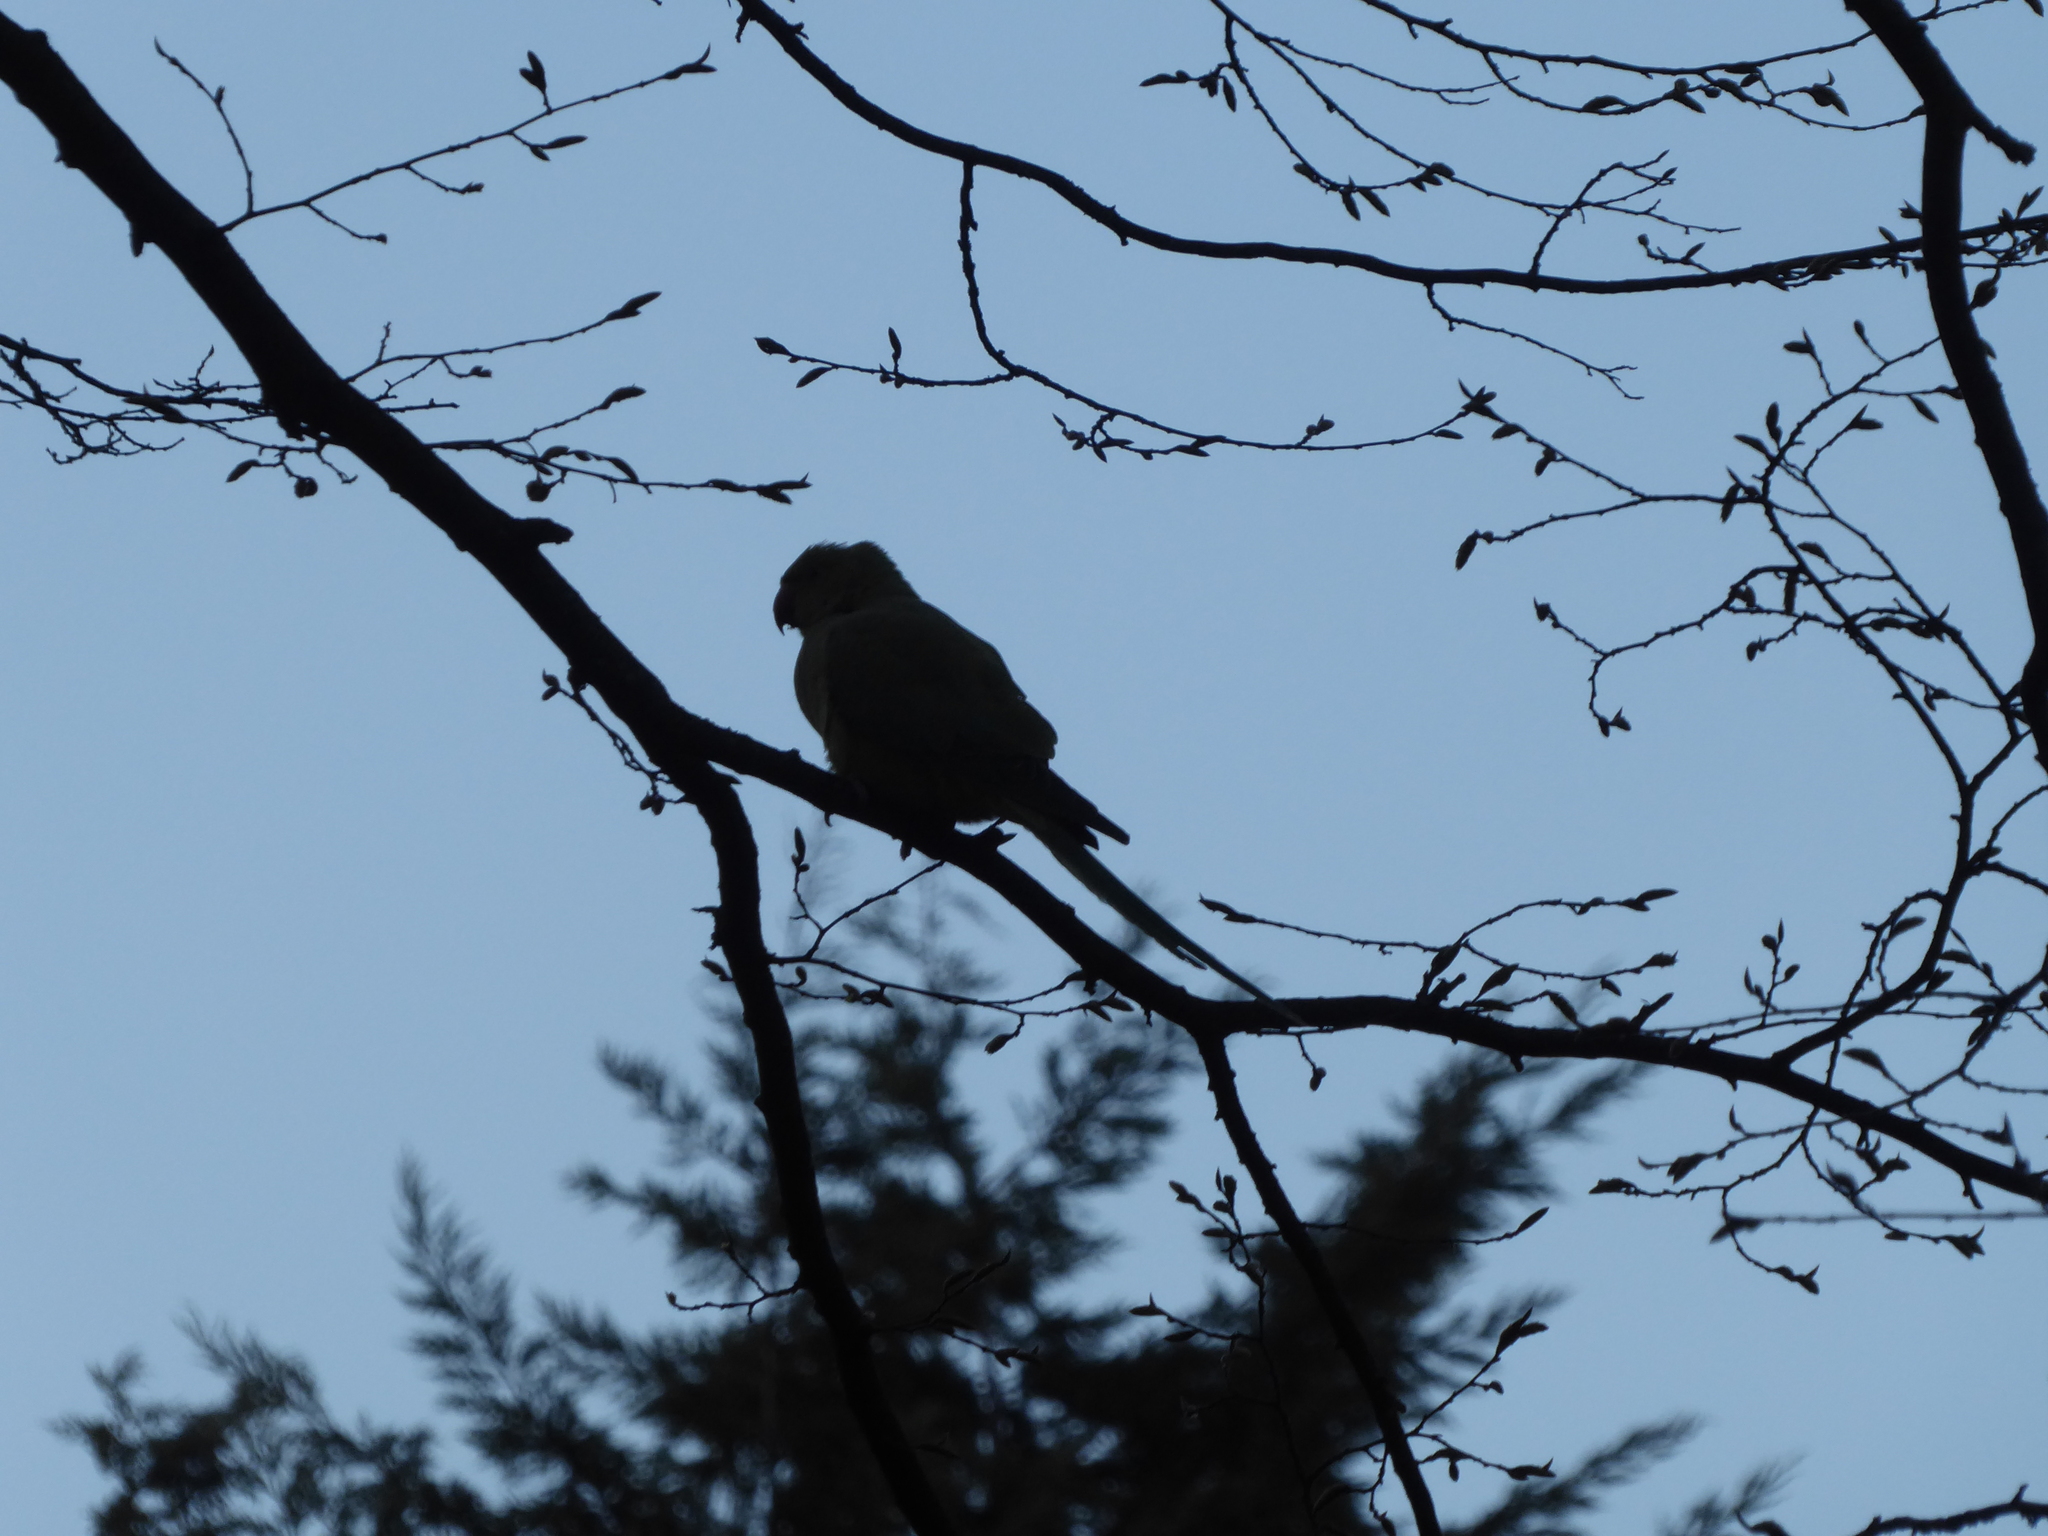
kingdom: Animalia
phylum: Chordata
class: Aves
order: Psittaciformes
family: Psittacidae
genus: Psittacula
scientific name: Psittacula krameri
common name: Rose-ringed parakeet
